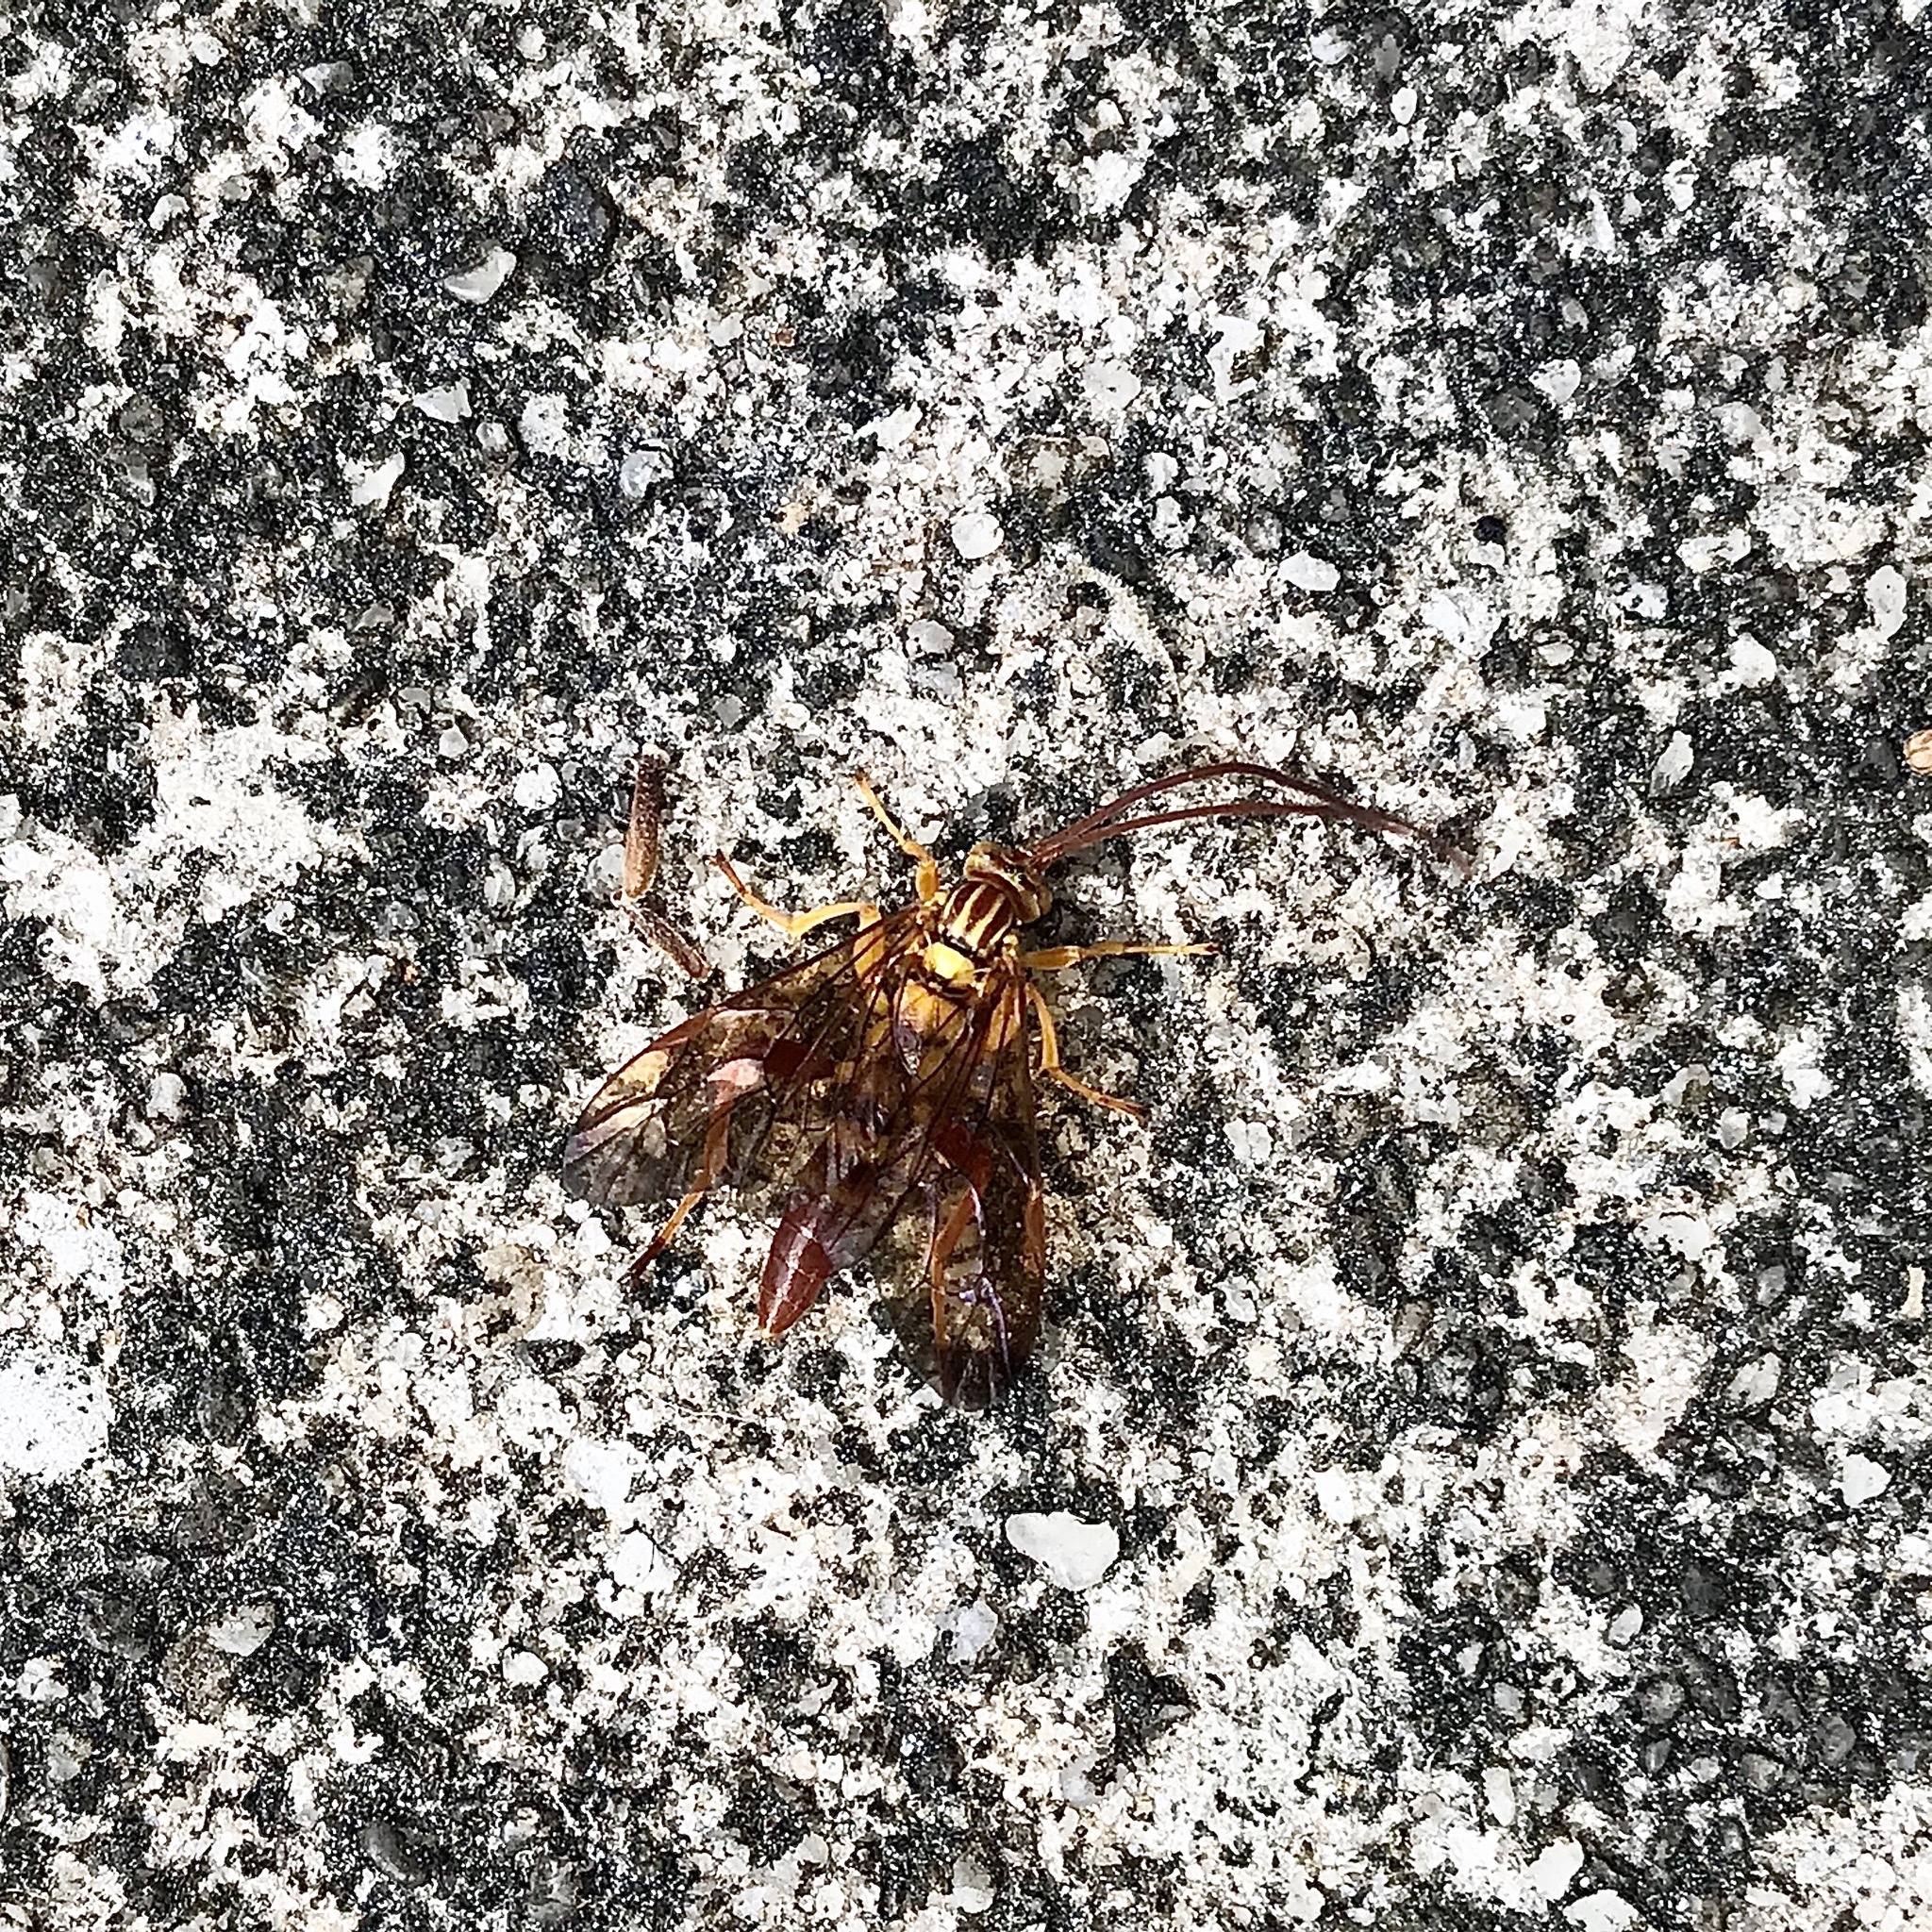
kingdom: Animalia
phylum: Arthropoda
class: Insecta
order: Hymenoptera
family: Ichneumonidae
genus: Neotheronia
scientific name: Neotheronia bicincta
